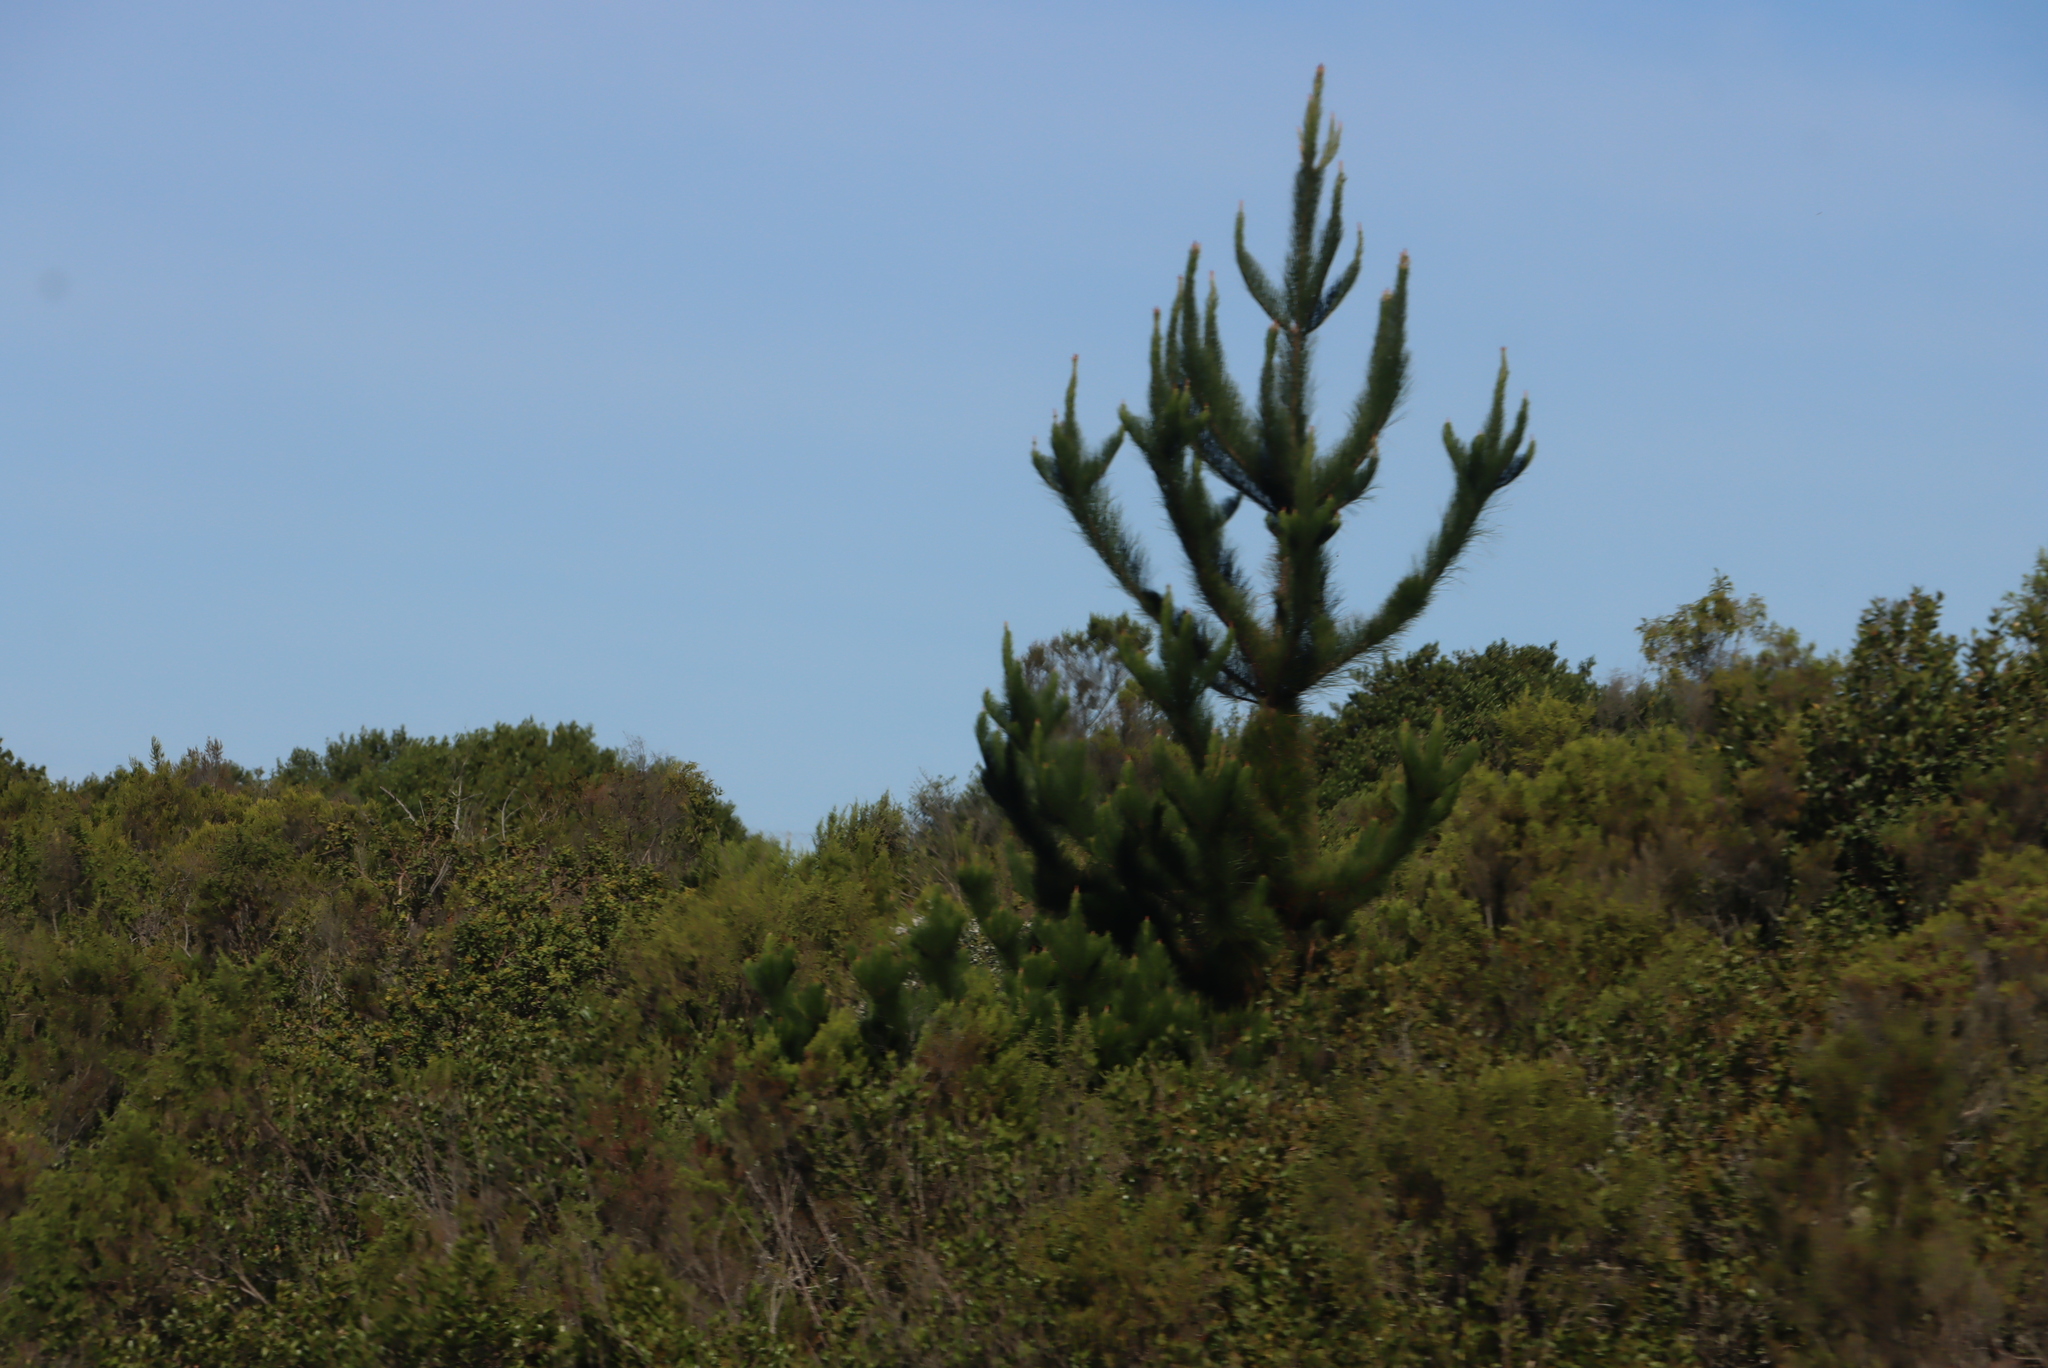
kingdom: Plantae
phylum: Tracheophyta
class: Pinopsida
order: Pinales
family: Pinaceae
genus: Pinus
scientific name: Pinus pinaster
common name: Maritime pine
